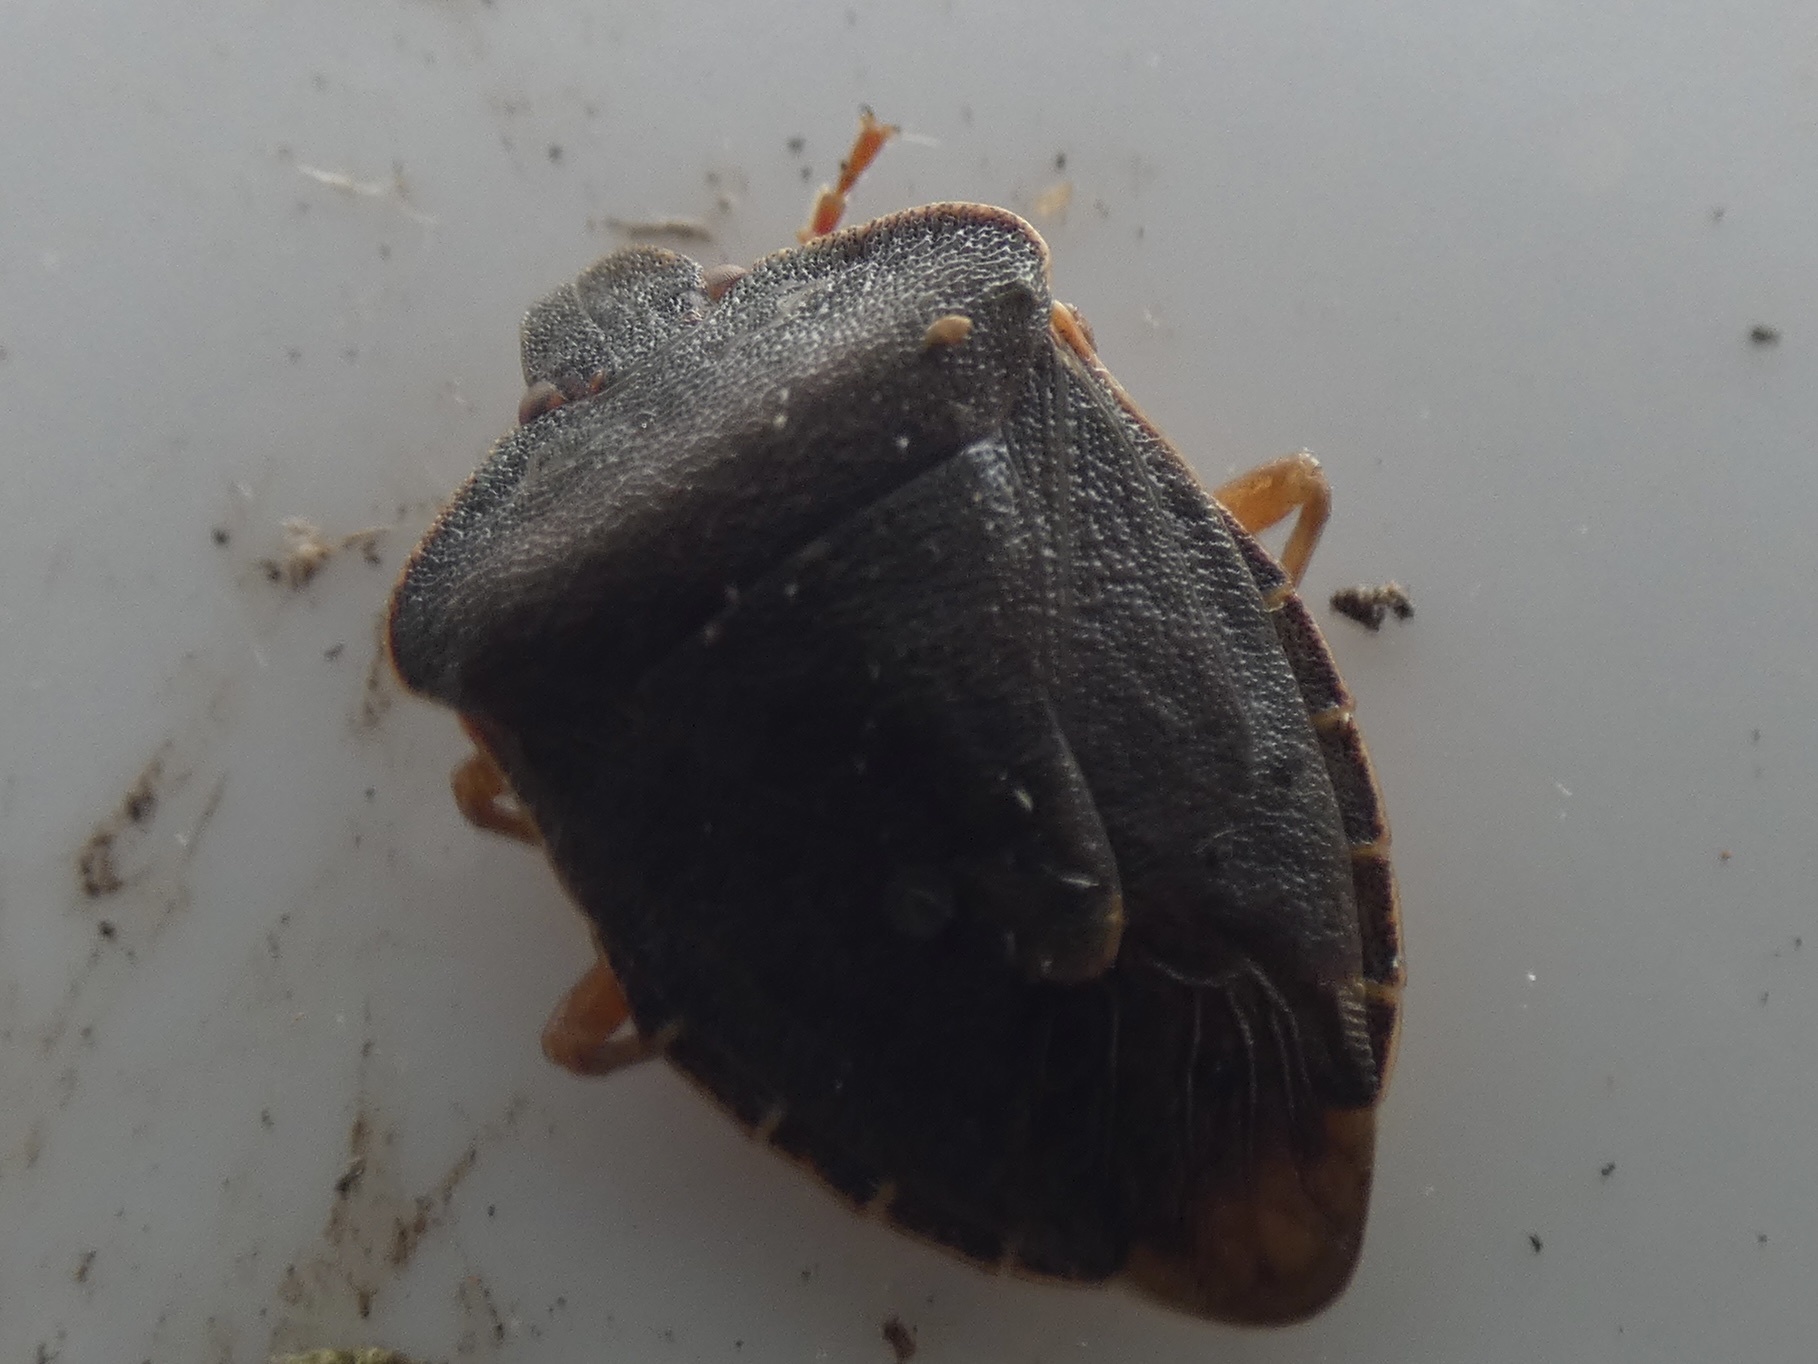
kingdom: Animalia
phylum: Arthropoda
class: Insecta
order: Hemiptera
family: Pentatomidae
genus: Palomena
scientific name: Palomena prasina
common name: Green shieldbug
